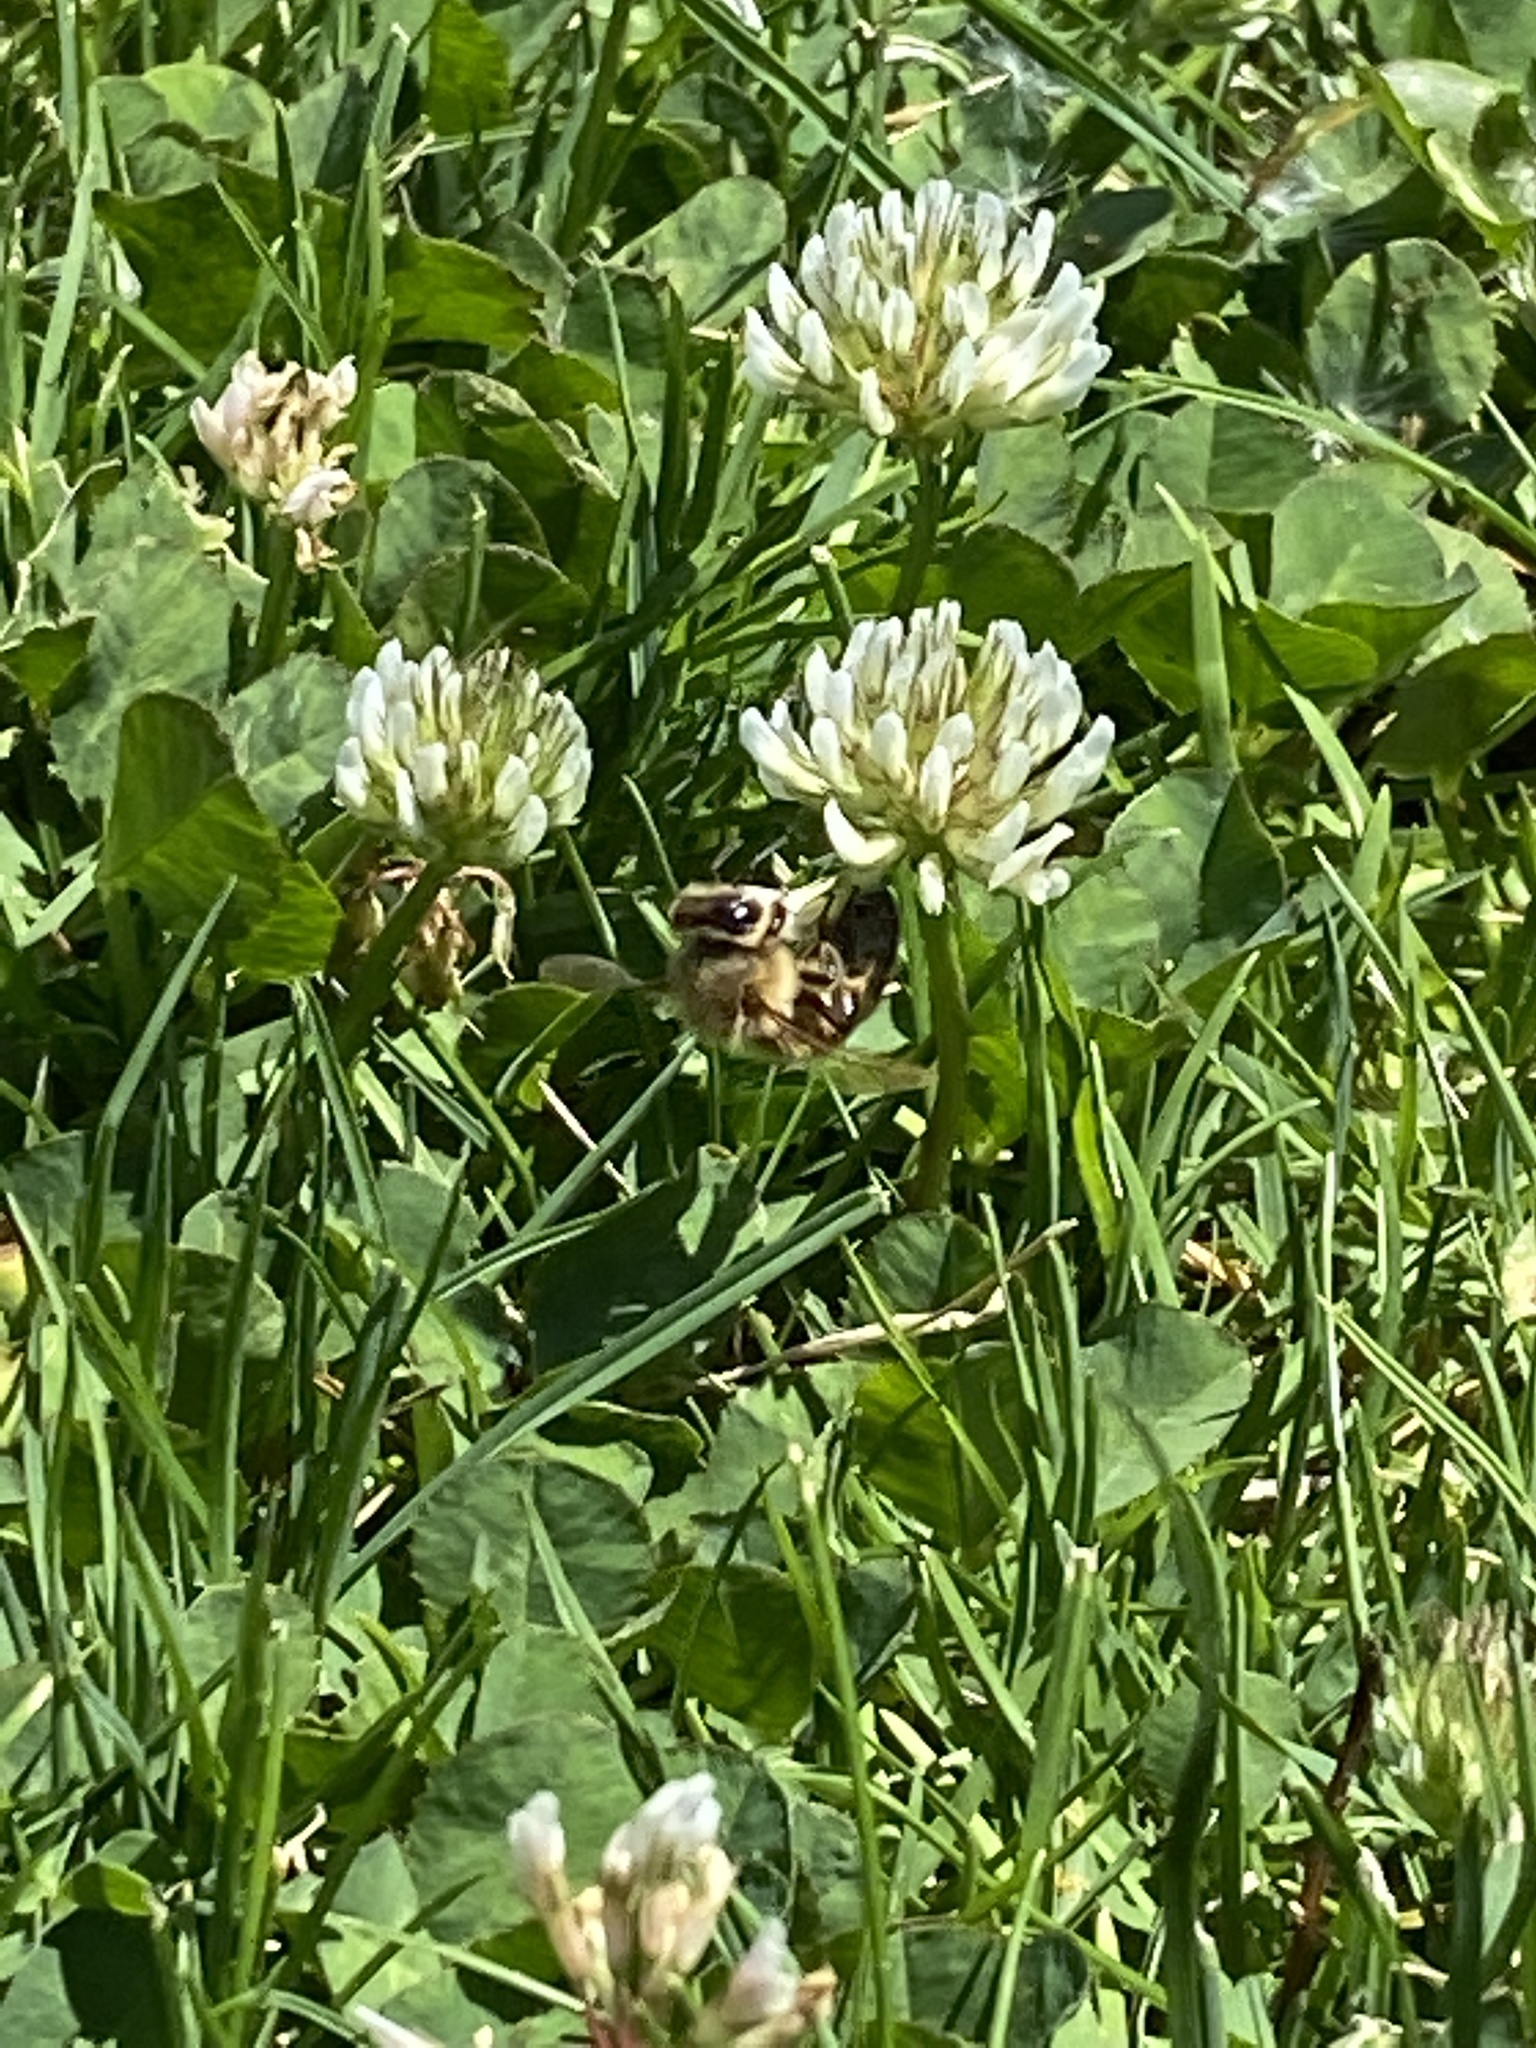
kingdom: Animalia
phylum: Arthropoda
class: Insecta
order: Hymenoptera
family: Apidae
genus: Apis
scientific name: Apis mellifera
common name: Honey bee
